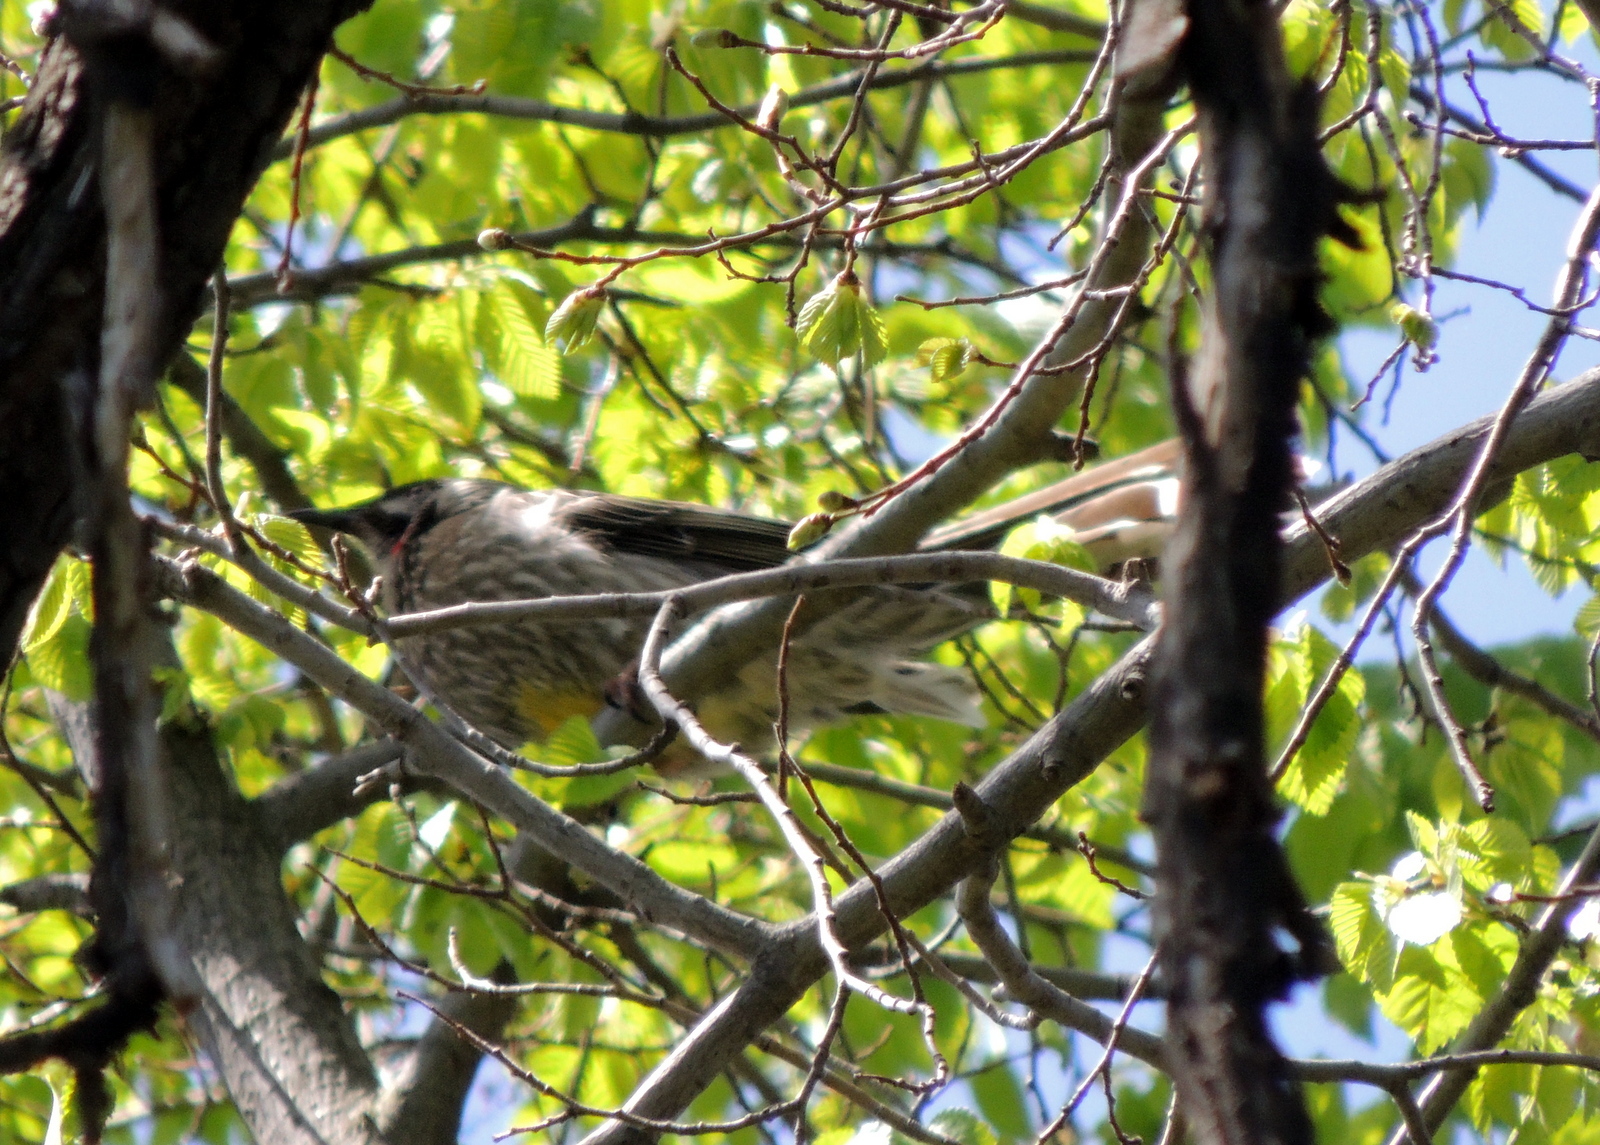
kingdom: Animalia
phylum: Chordata
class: Aves
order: Passeriformes
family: Meliphagidae
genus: Anthochaera
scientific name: Anthochaera carunculata
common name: Red wattlebird
